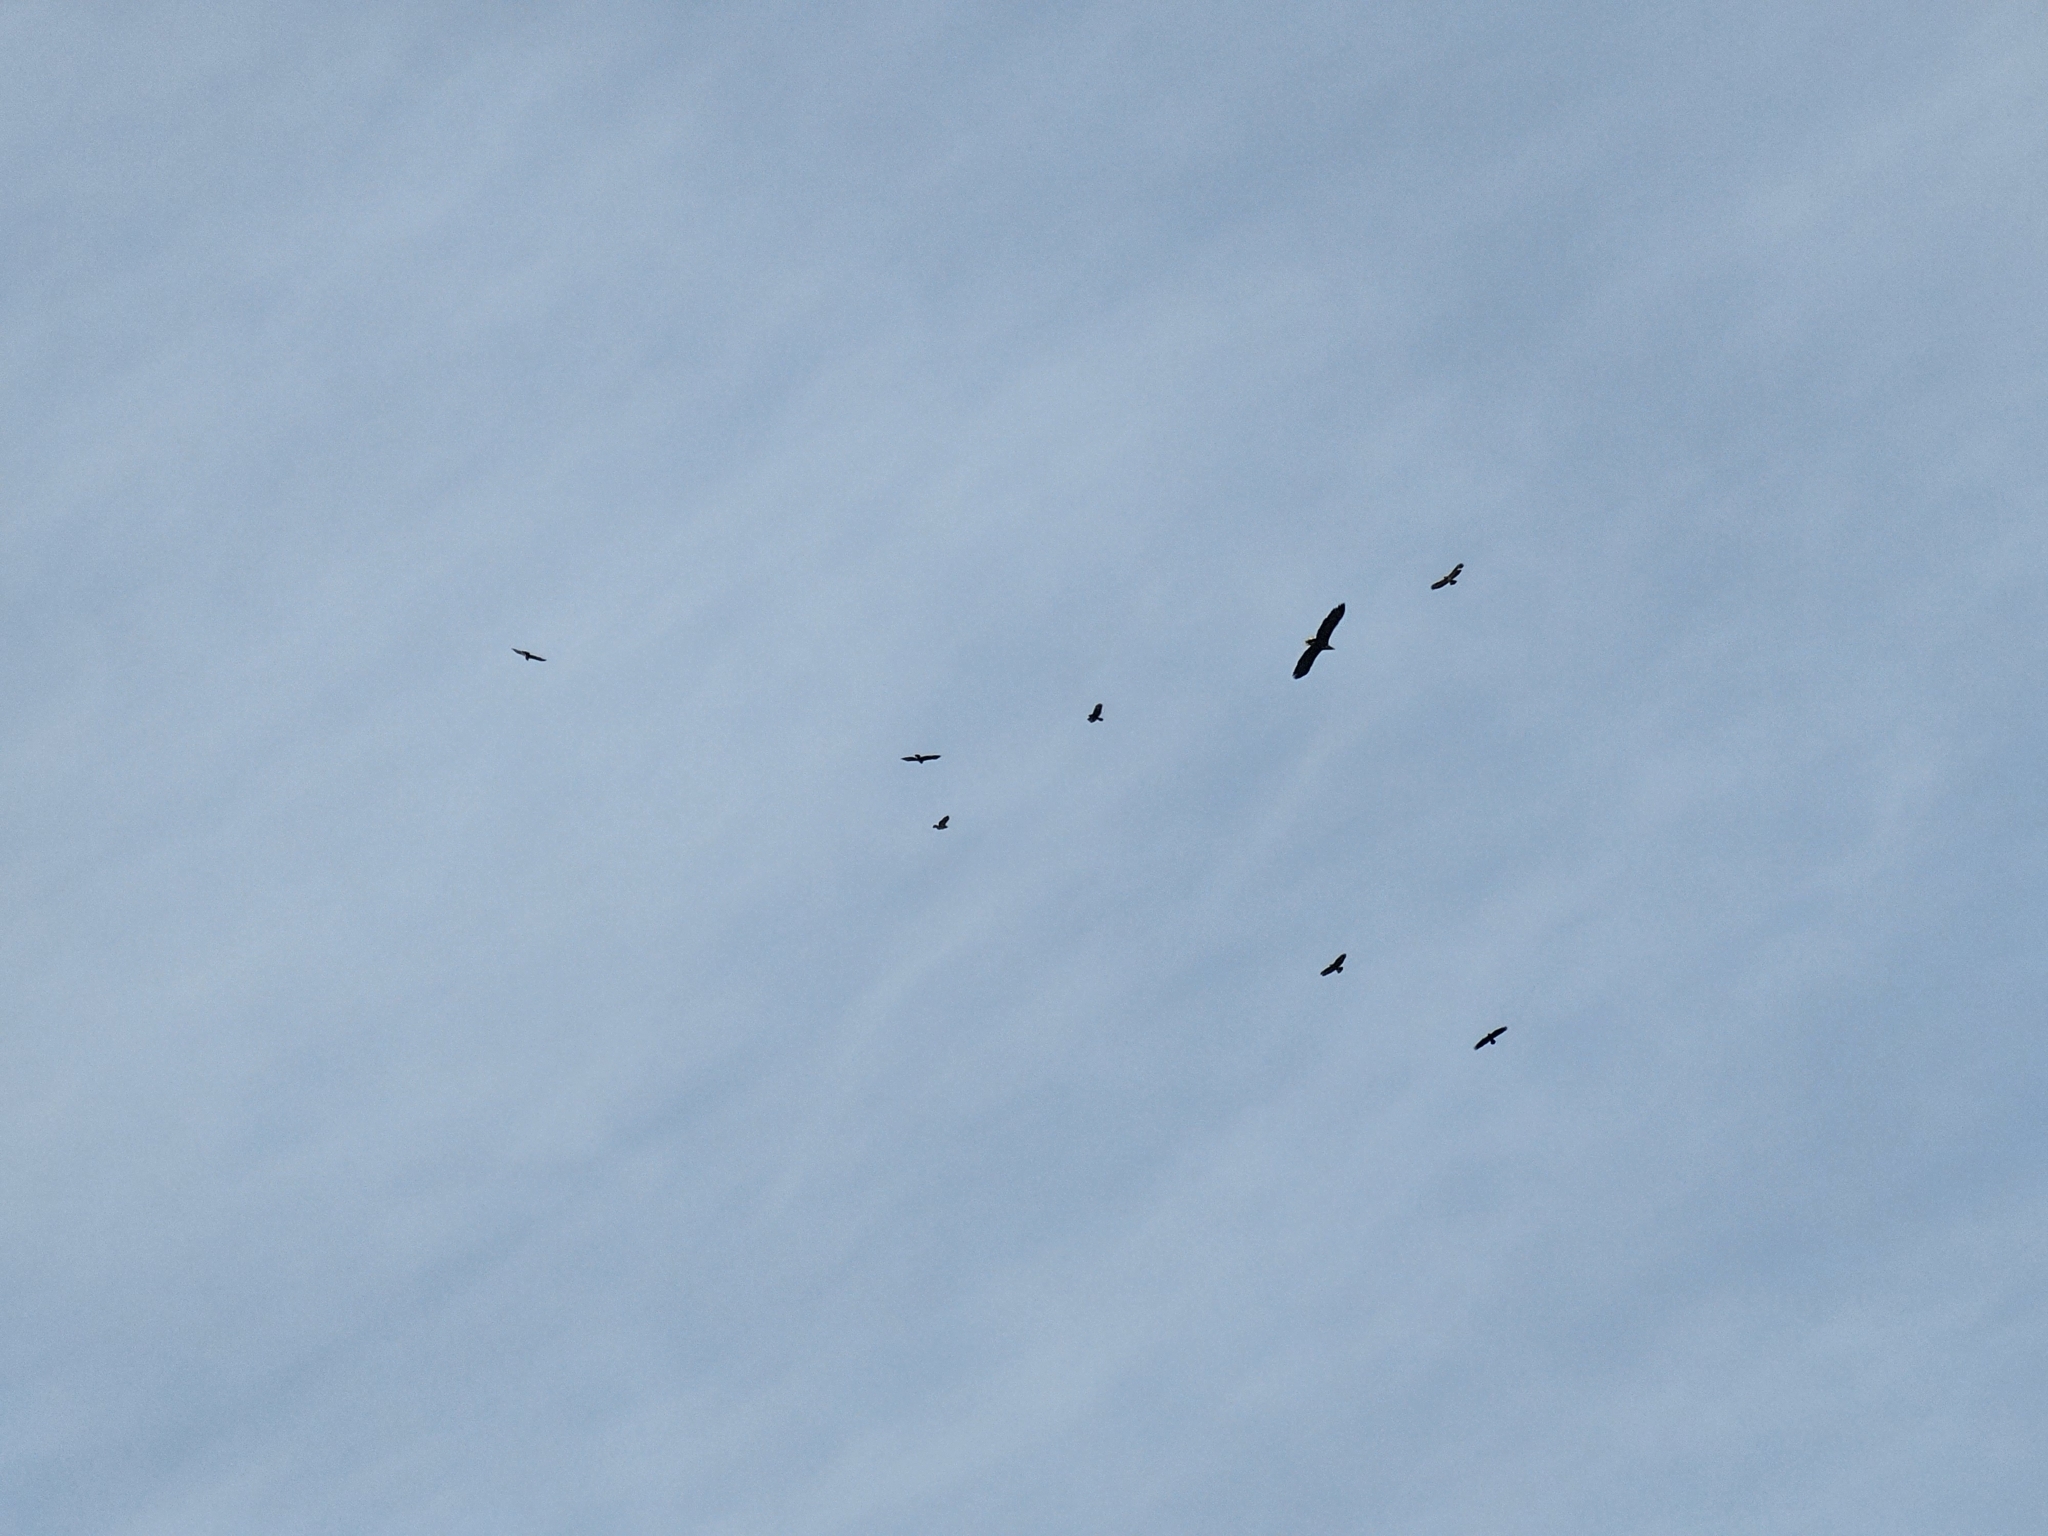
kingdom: Animalia
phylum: Chordata
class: Aves
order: Accipitriformes
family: Accipitridae
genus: Buteo
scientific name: Buteo buteo
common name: Common buzzard
